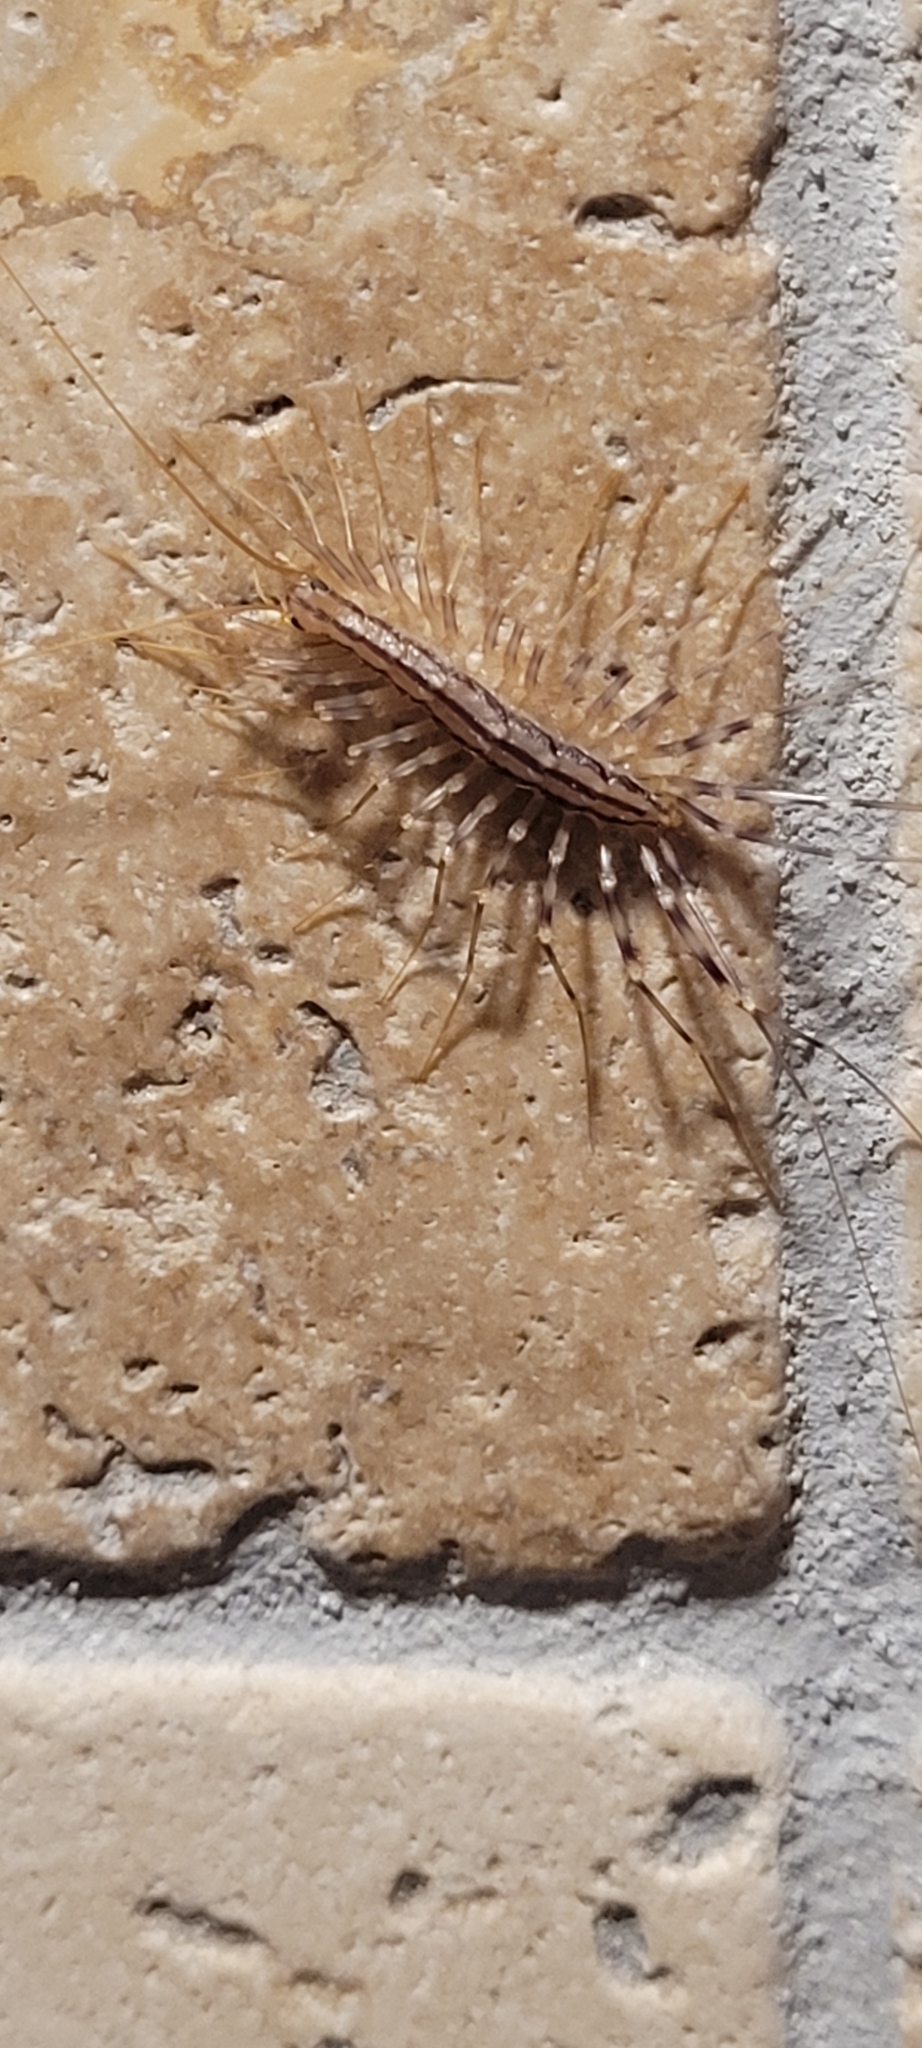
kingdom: Animalia
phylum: Arthropoda
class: Chilopoda
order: Scutigeromorpha
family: Scutigeridae
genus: Scutigera
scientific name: Scutigera coleoptrata
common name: House centipede
